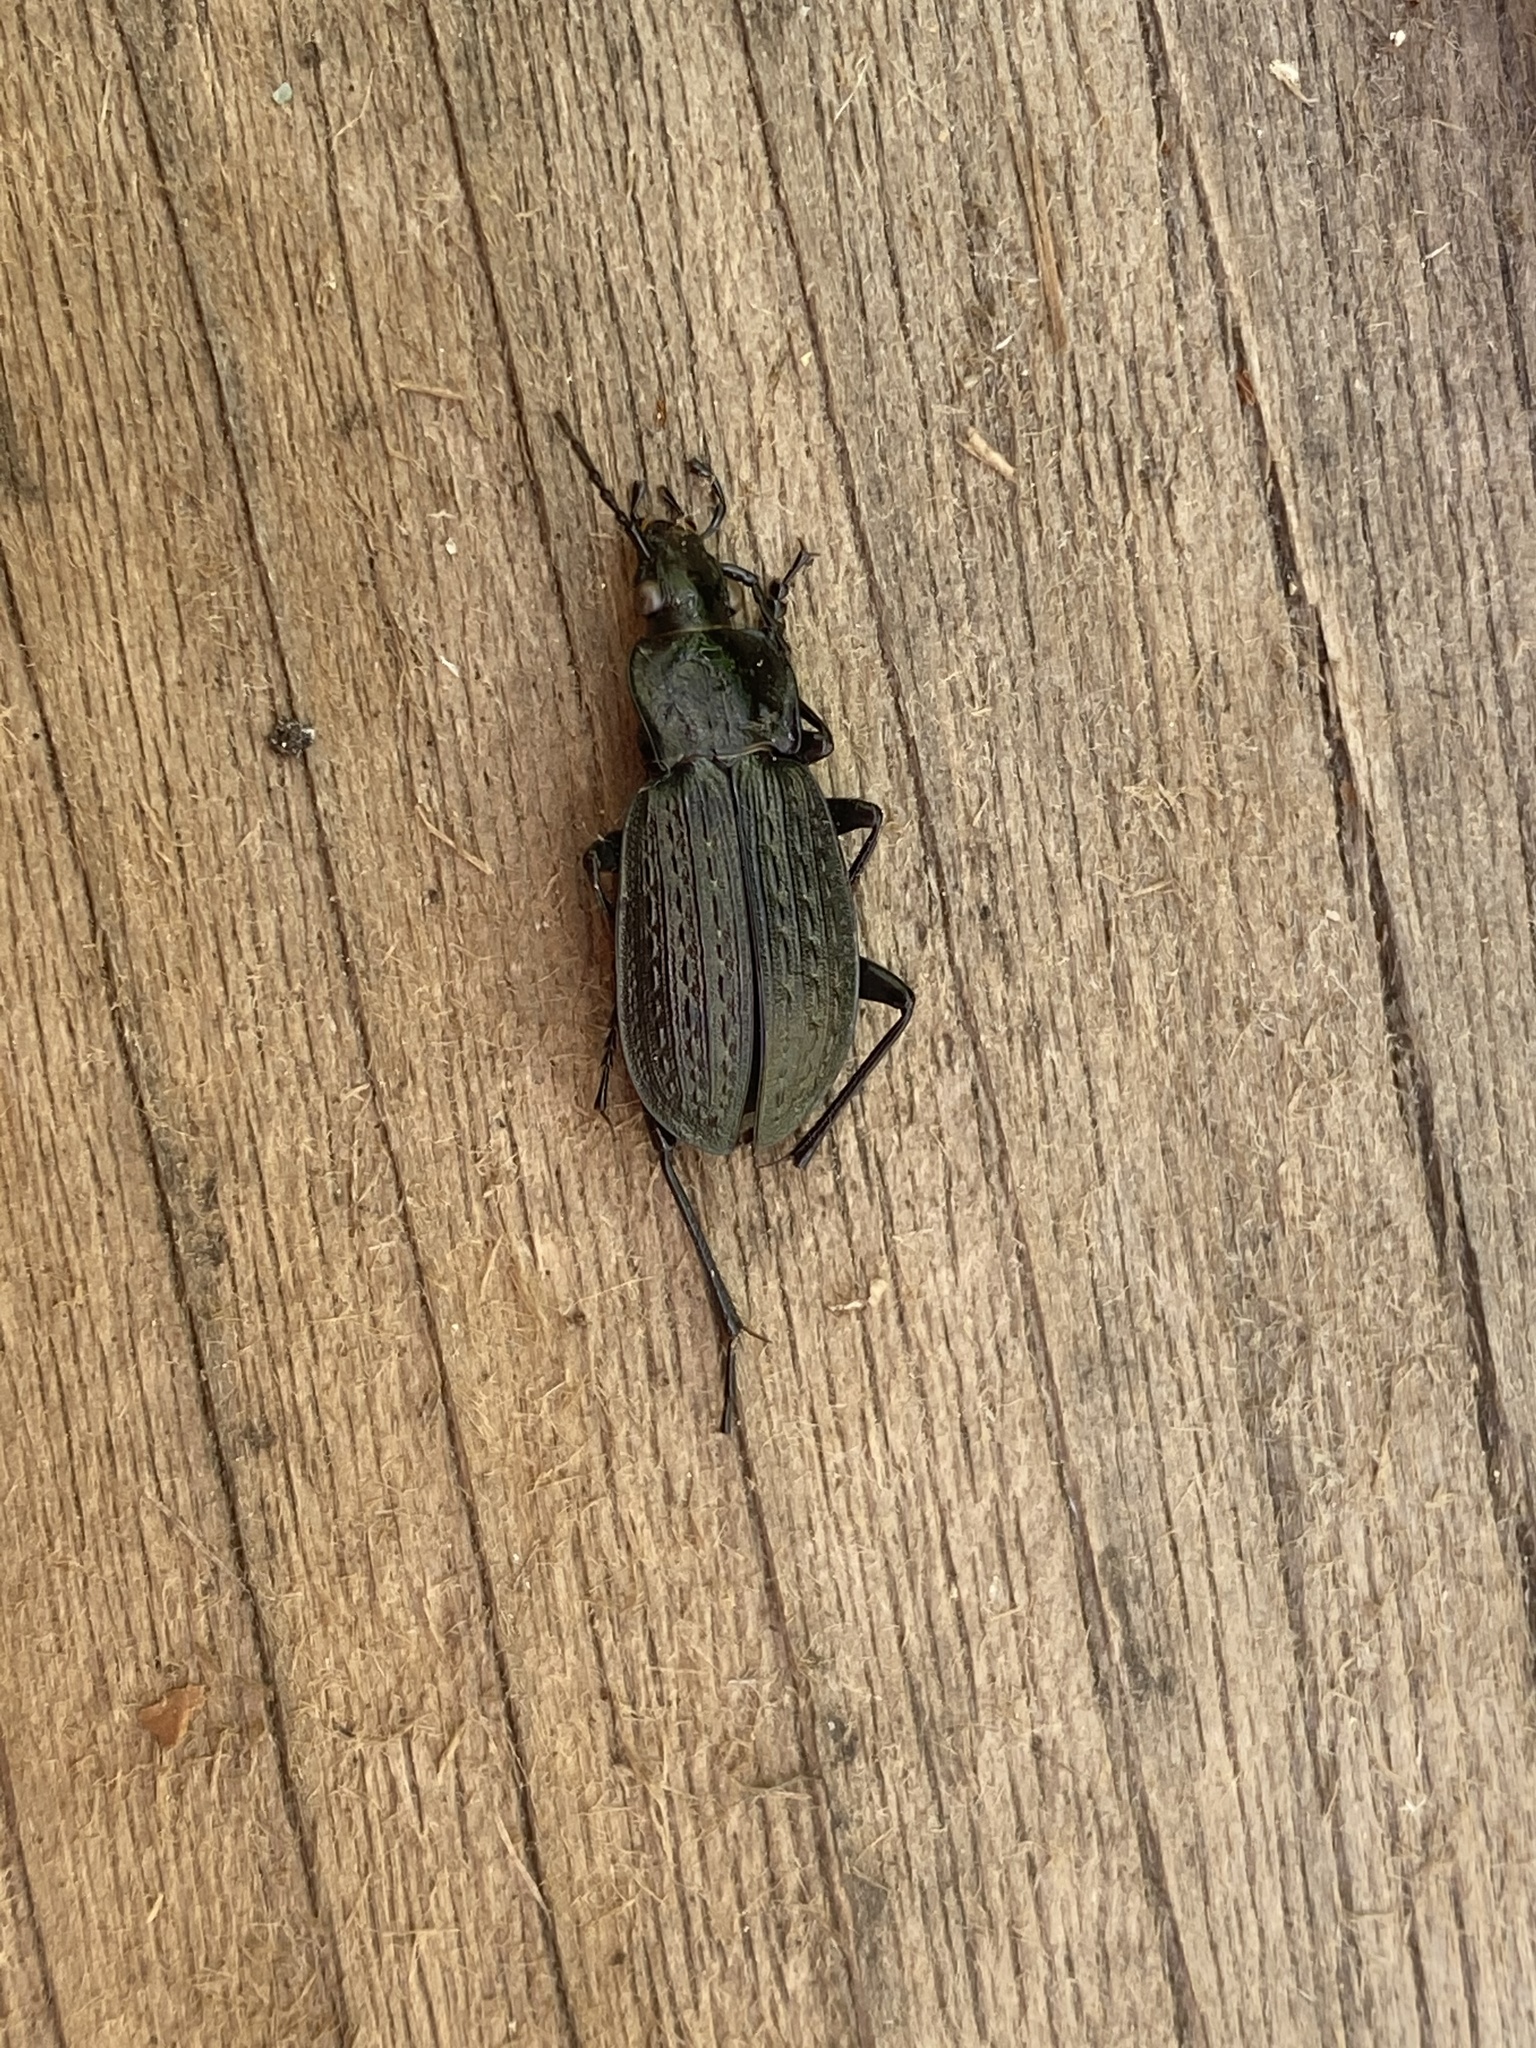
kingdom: Animalia
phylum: Arthropoda
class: Insecta
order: Coleoptera
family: Carabidae
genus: Carabus
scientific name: Carabus granulatus
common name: Granulate ground beetle
